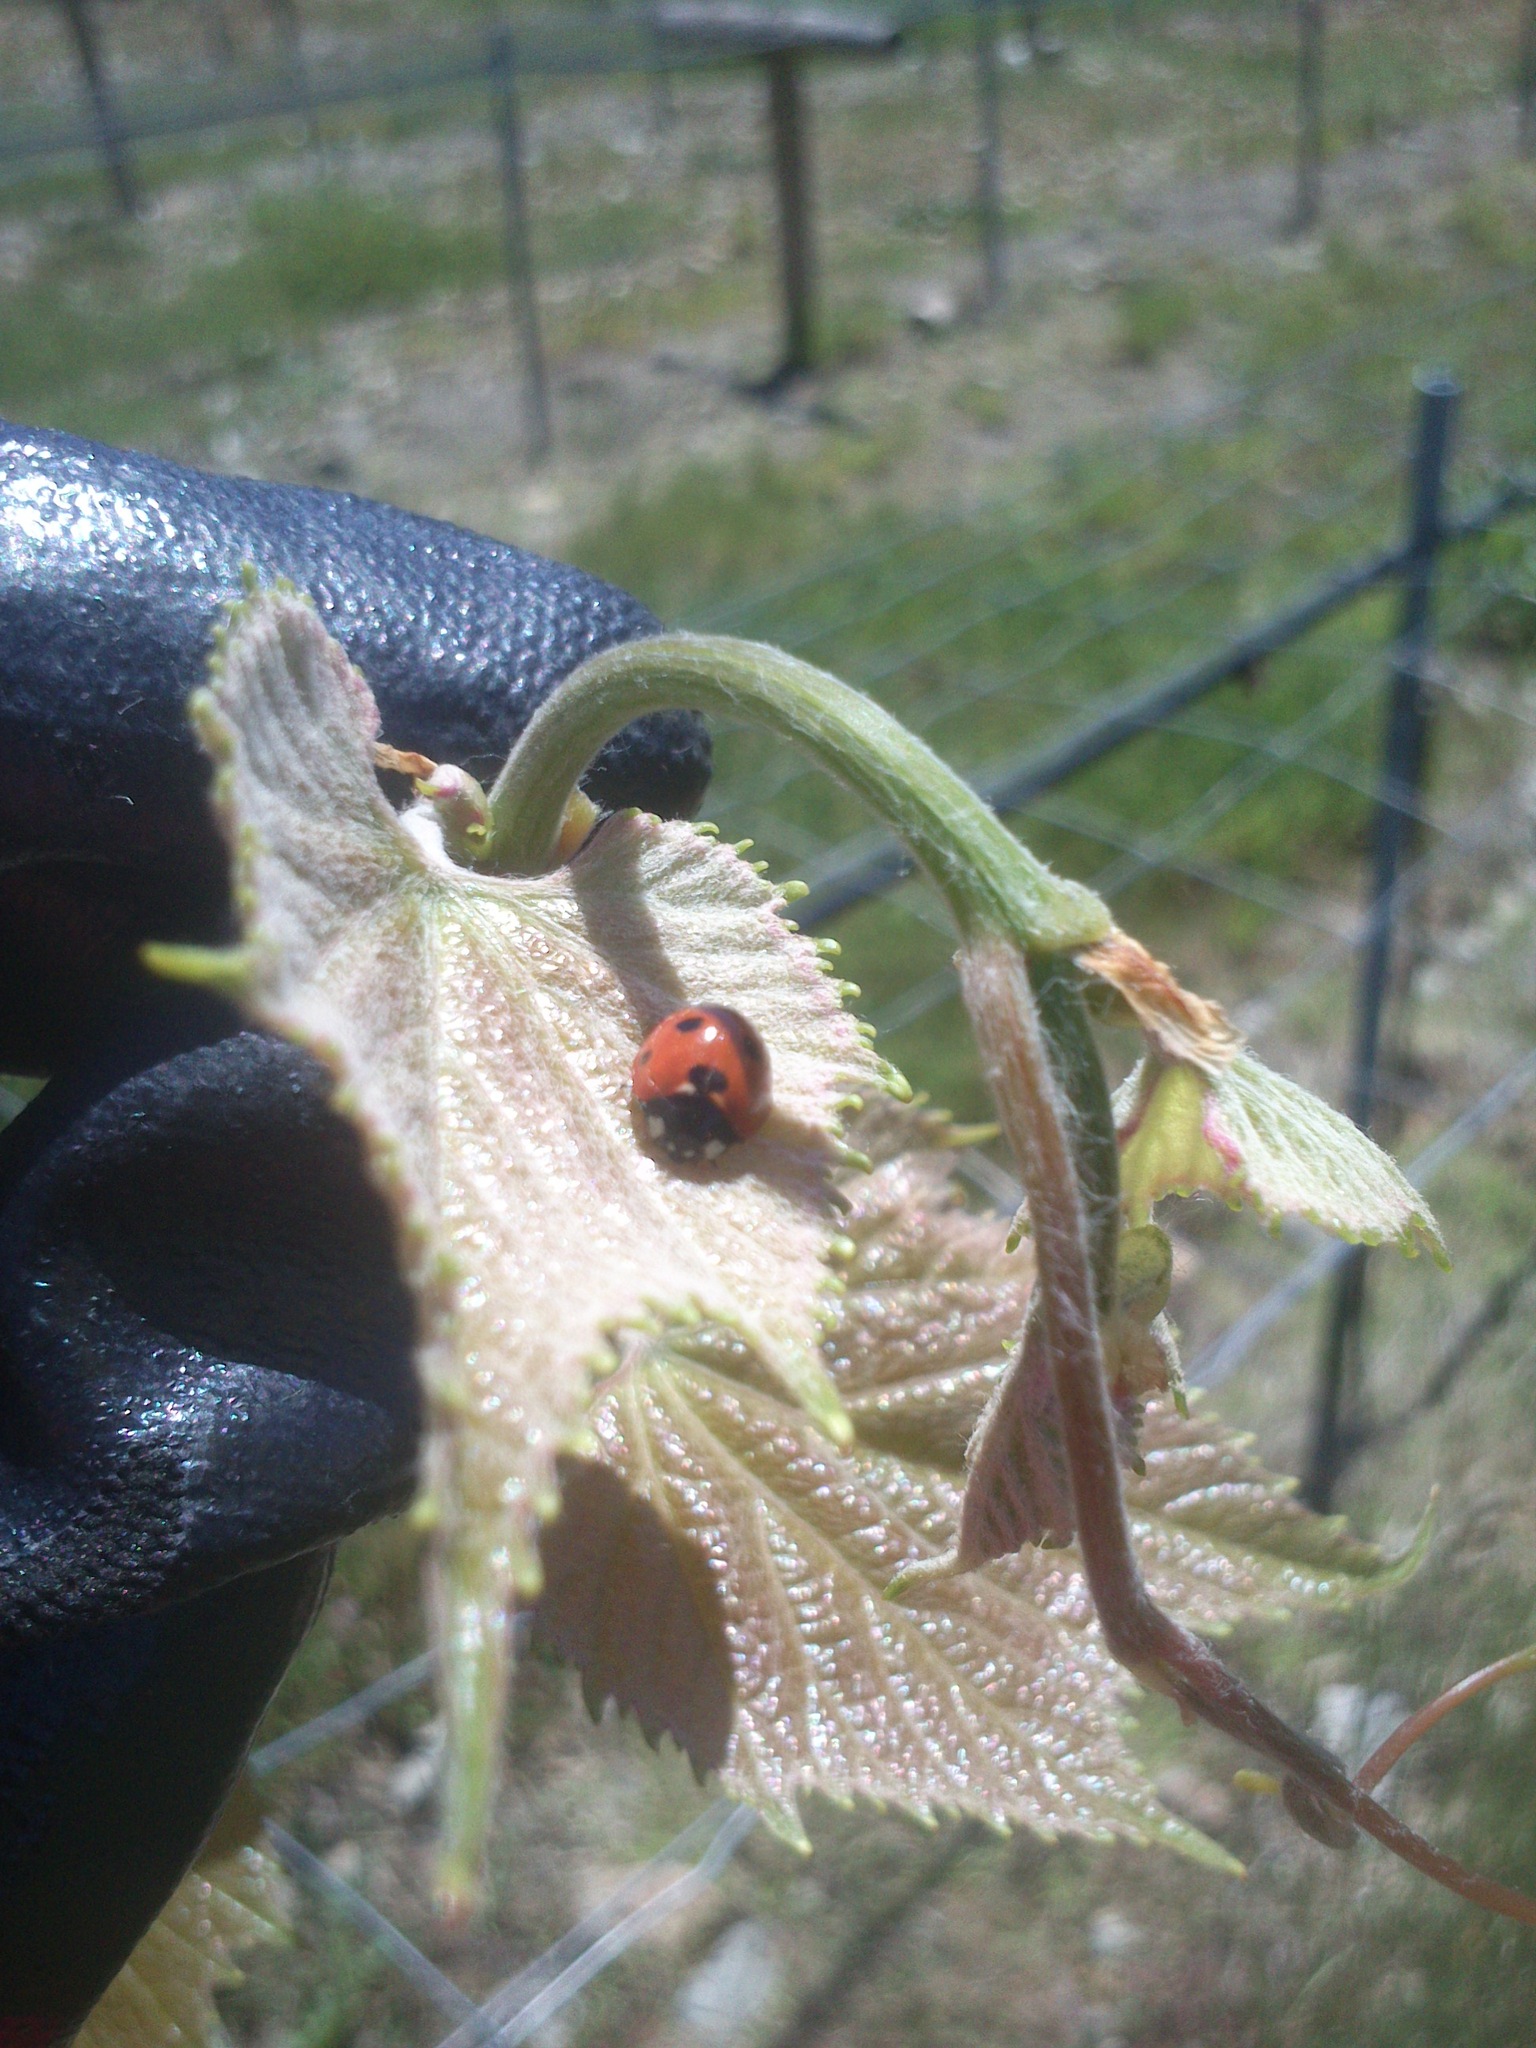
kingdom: Animalia
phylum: Arthropoda
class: Insecta
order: Coleoptera
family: Coccinellidae
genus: Coccinella
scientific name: Coccinella septempunctata
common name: Sevenspotted lady beetle
